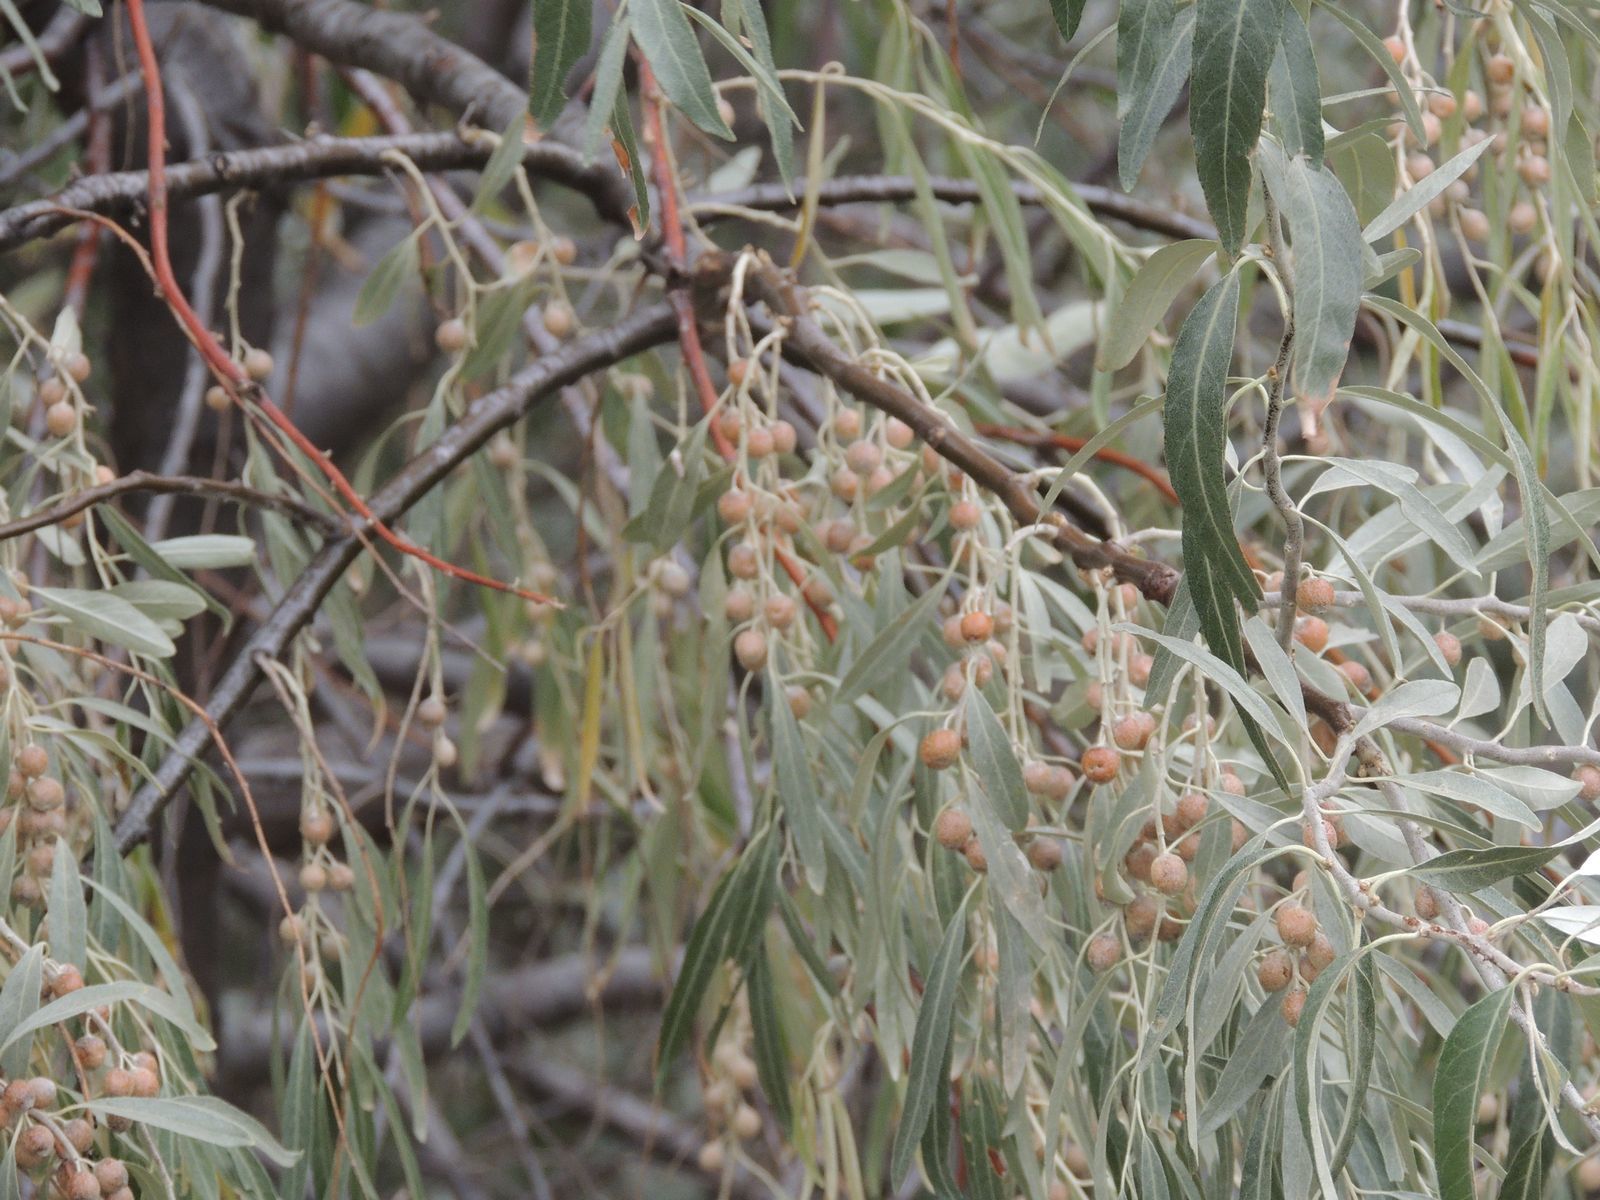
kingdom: Plantae
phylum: Tracheophyta
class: Magnoliopsida
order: Rosales
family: Elaeagnaceae
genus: Elaeagnus
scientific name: Elaeagnus angustifolia
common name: Russian olive
